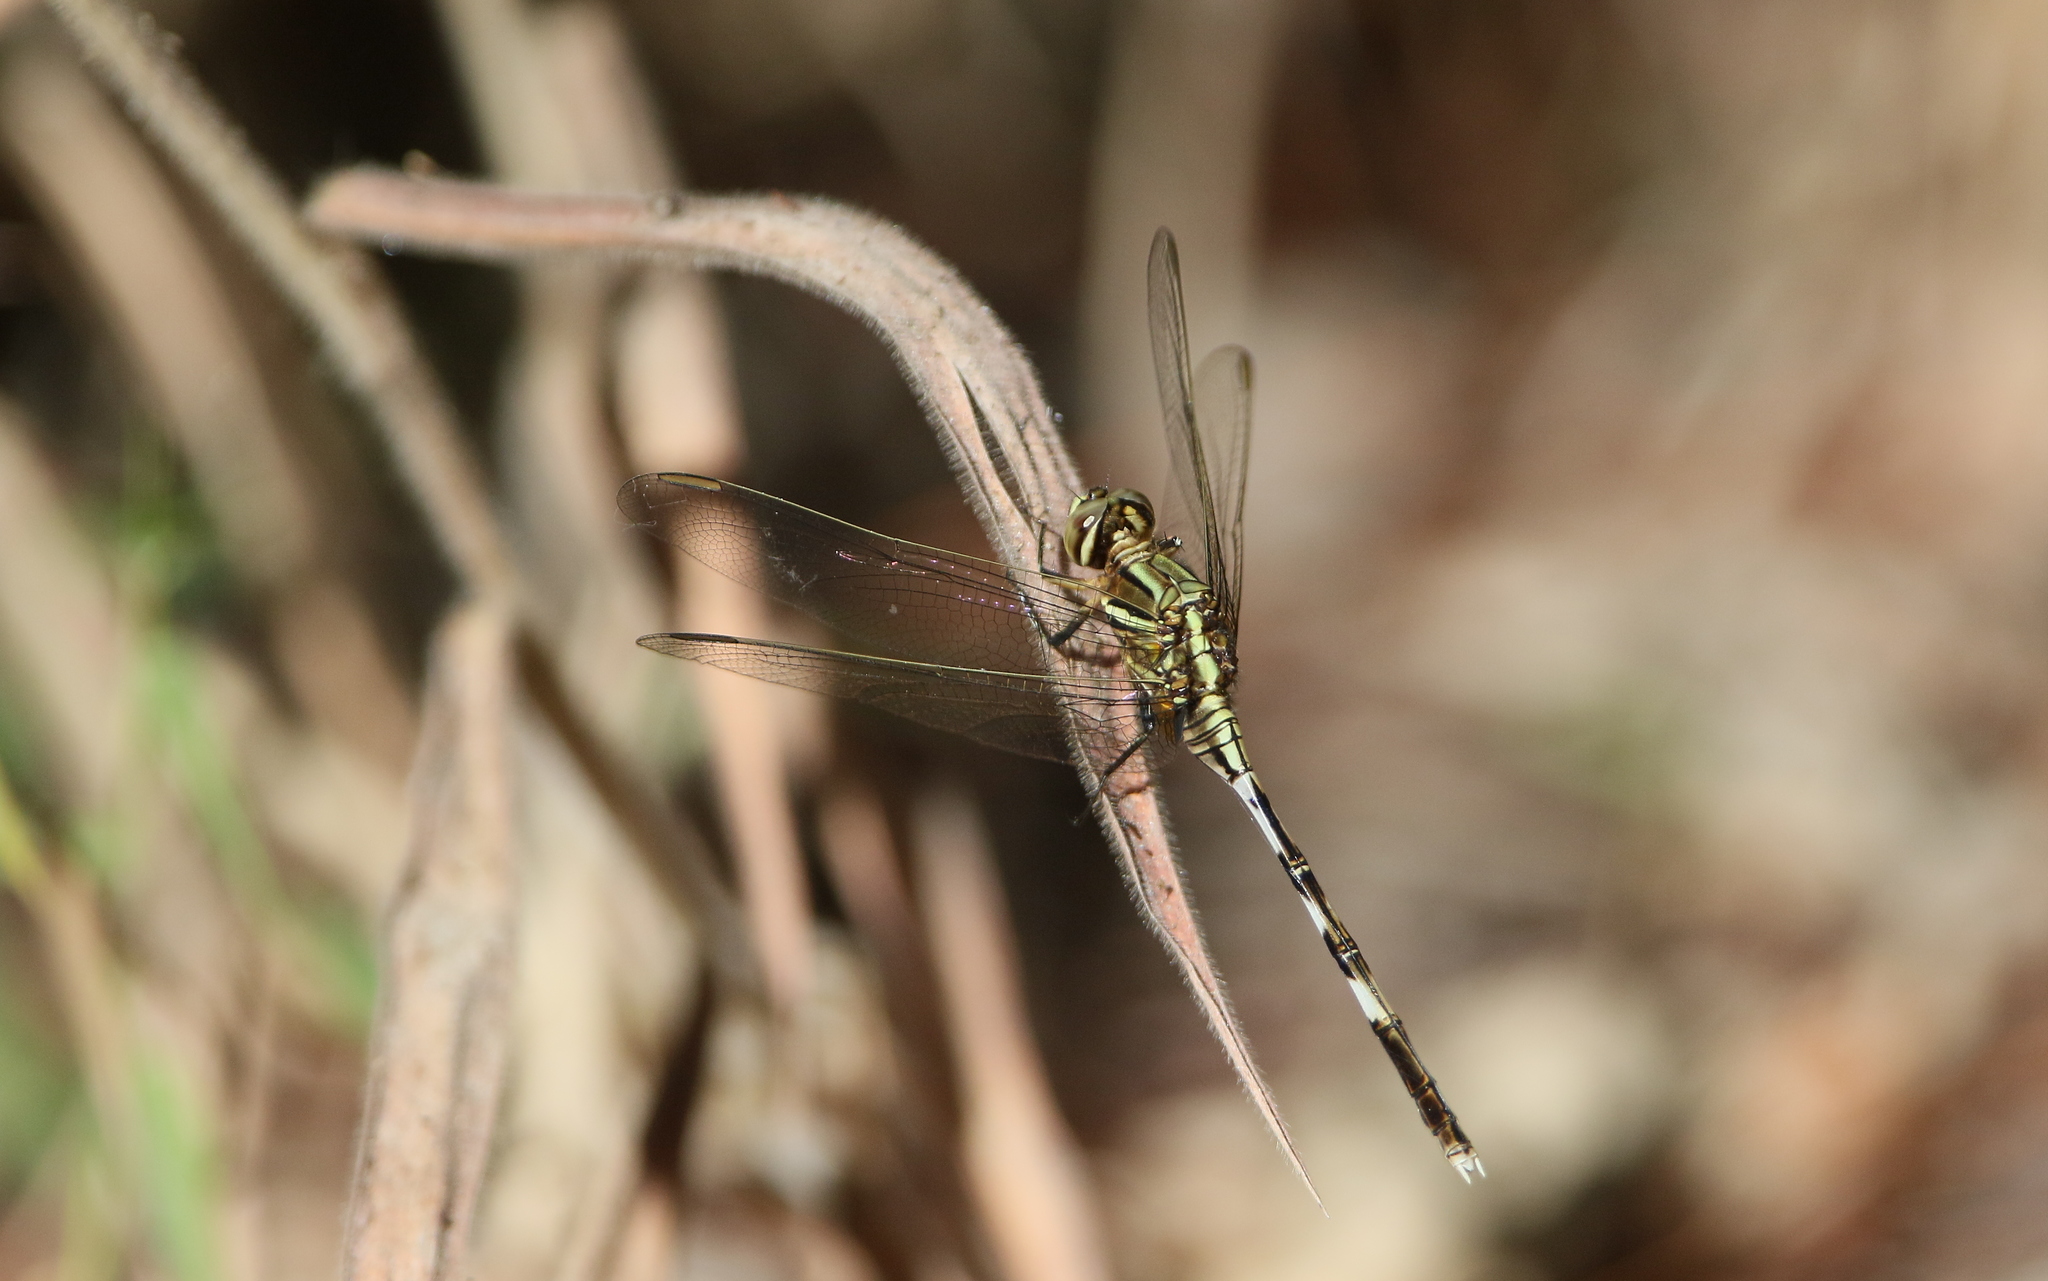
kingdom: Animalia
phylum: Arthropoda
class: Insecta
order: Odonata
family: Libellulidae
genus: Orthetrum
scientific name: Orthetrum sabina
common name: Slender skimmer
